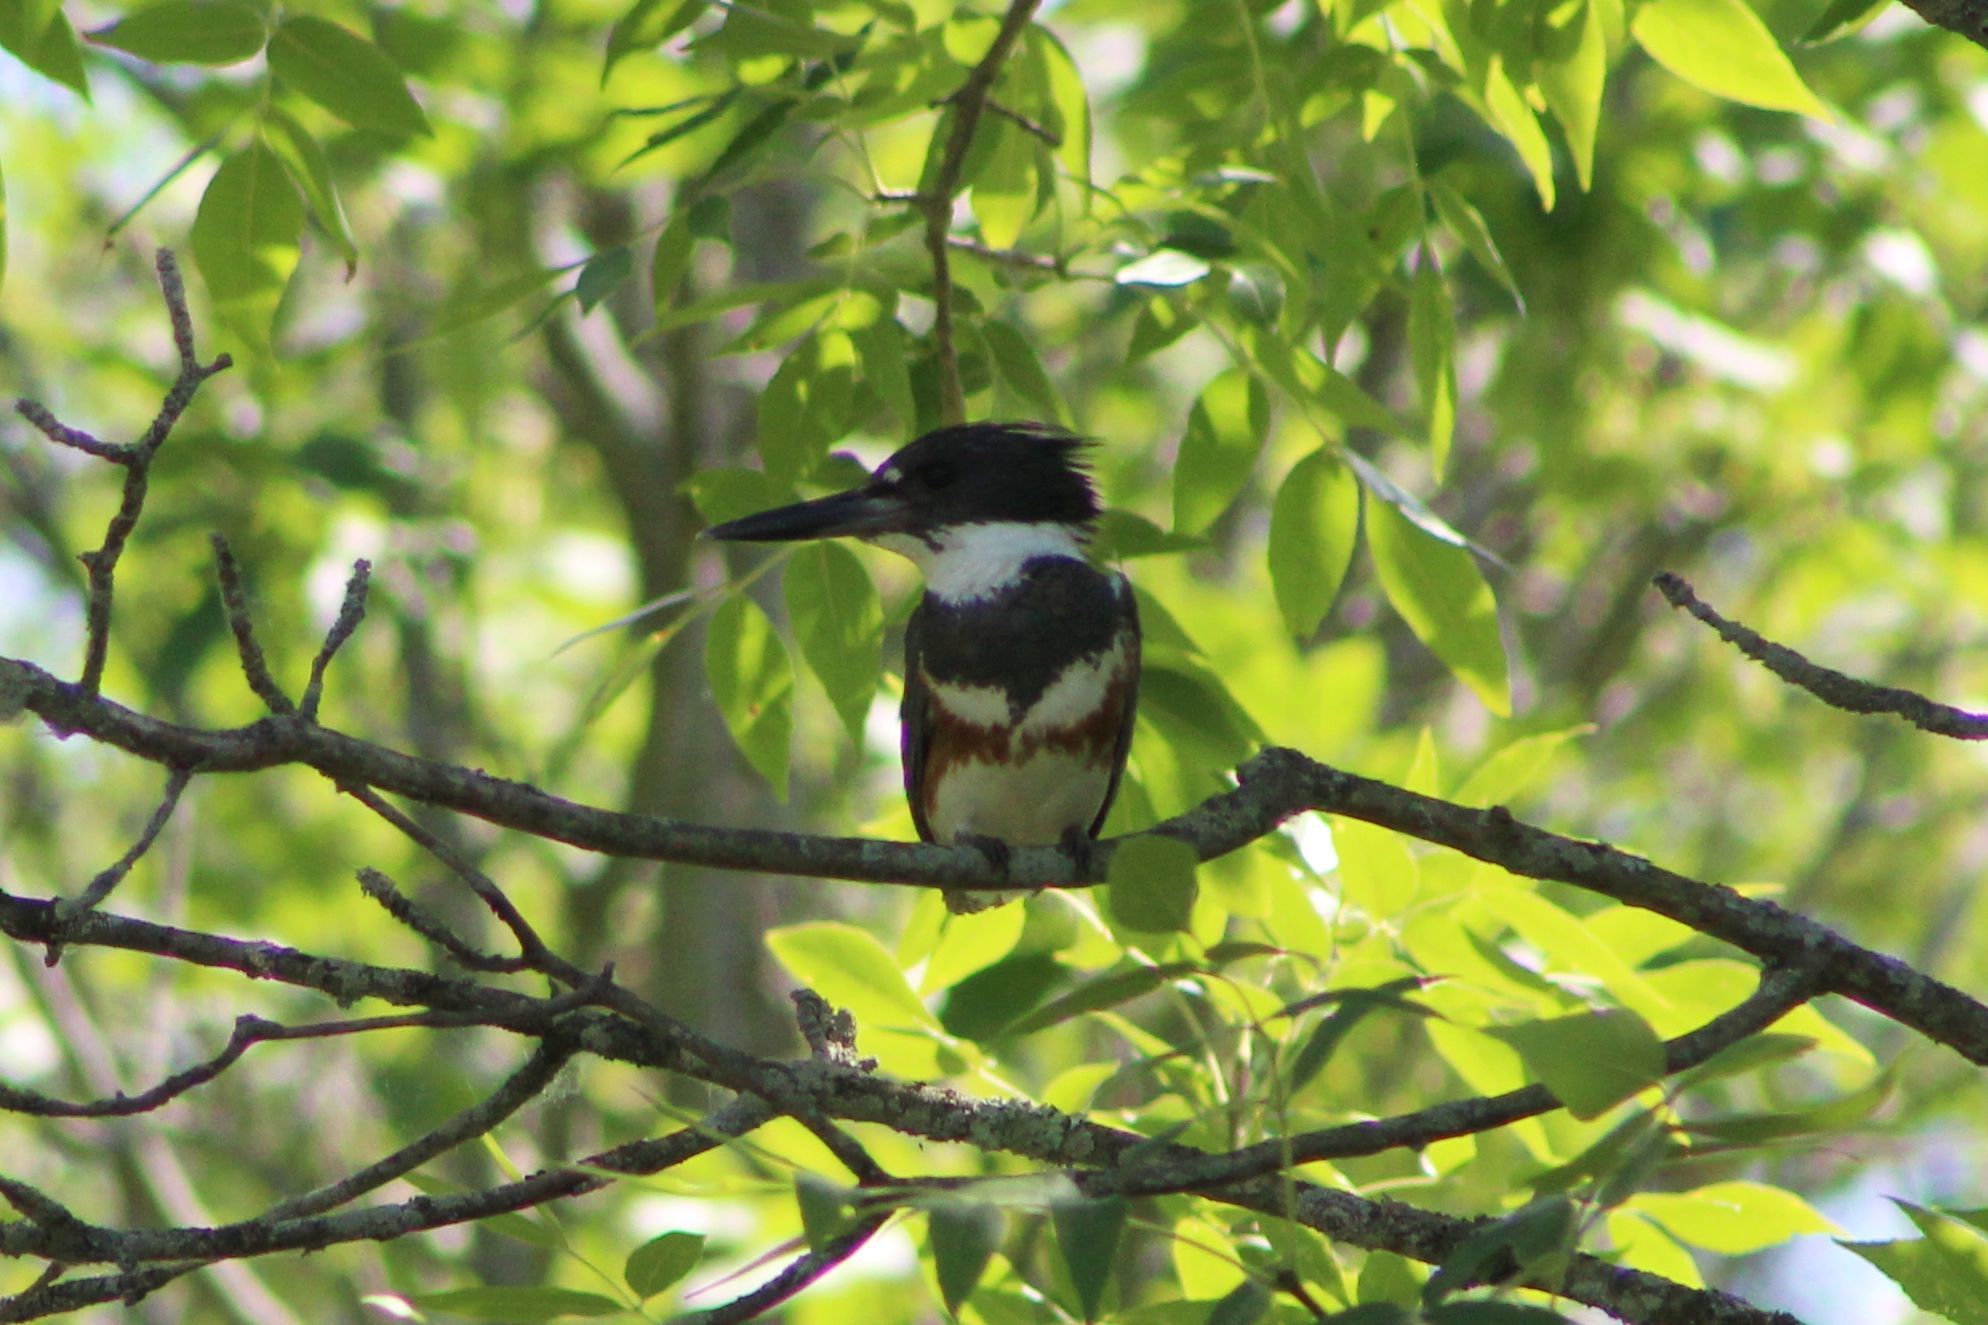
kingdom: Animalia
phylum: Chordata
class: Aves
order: Coraciiformes
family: Alcedinidae
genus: Megaceryle
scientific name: Megaceryle alcyon
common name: Belted kingfisher
